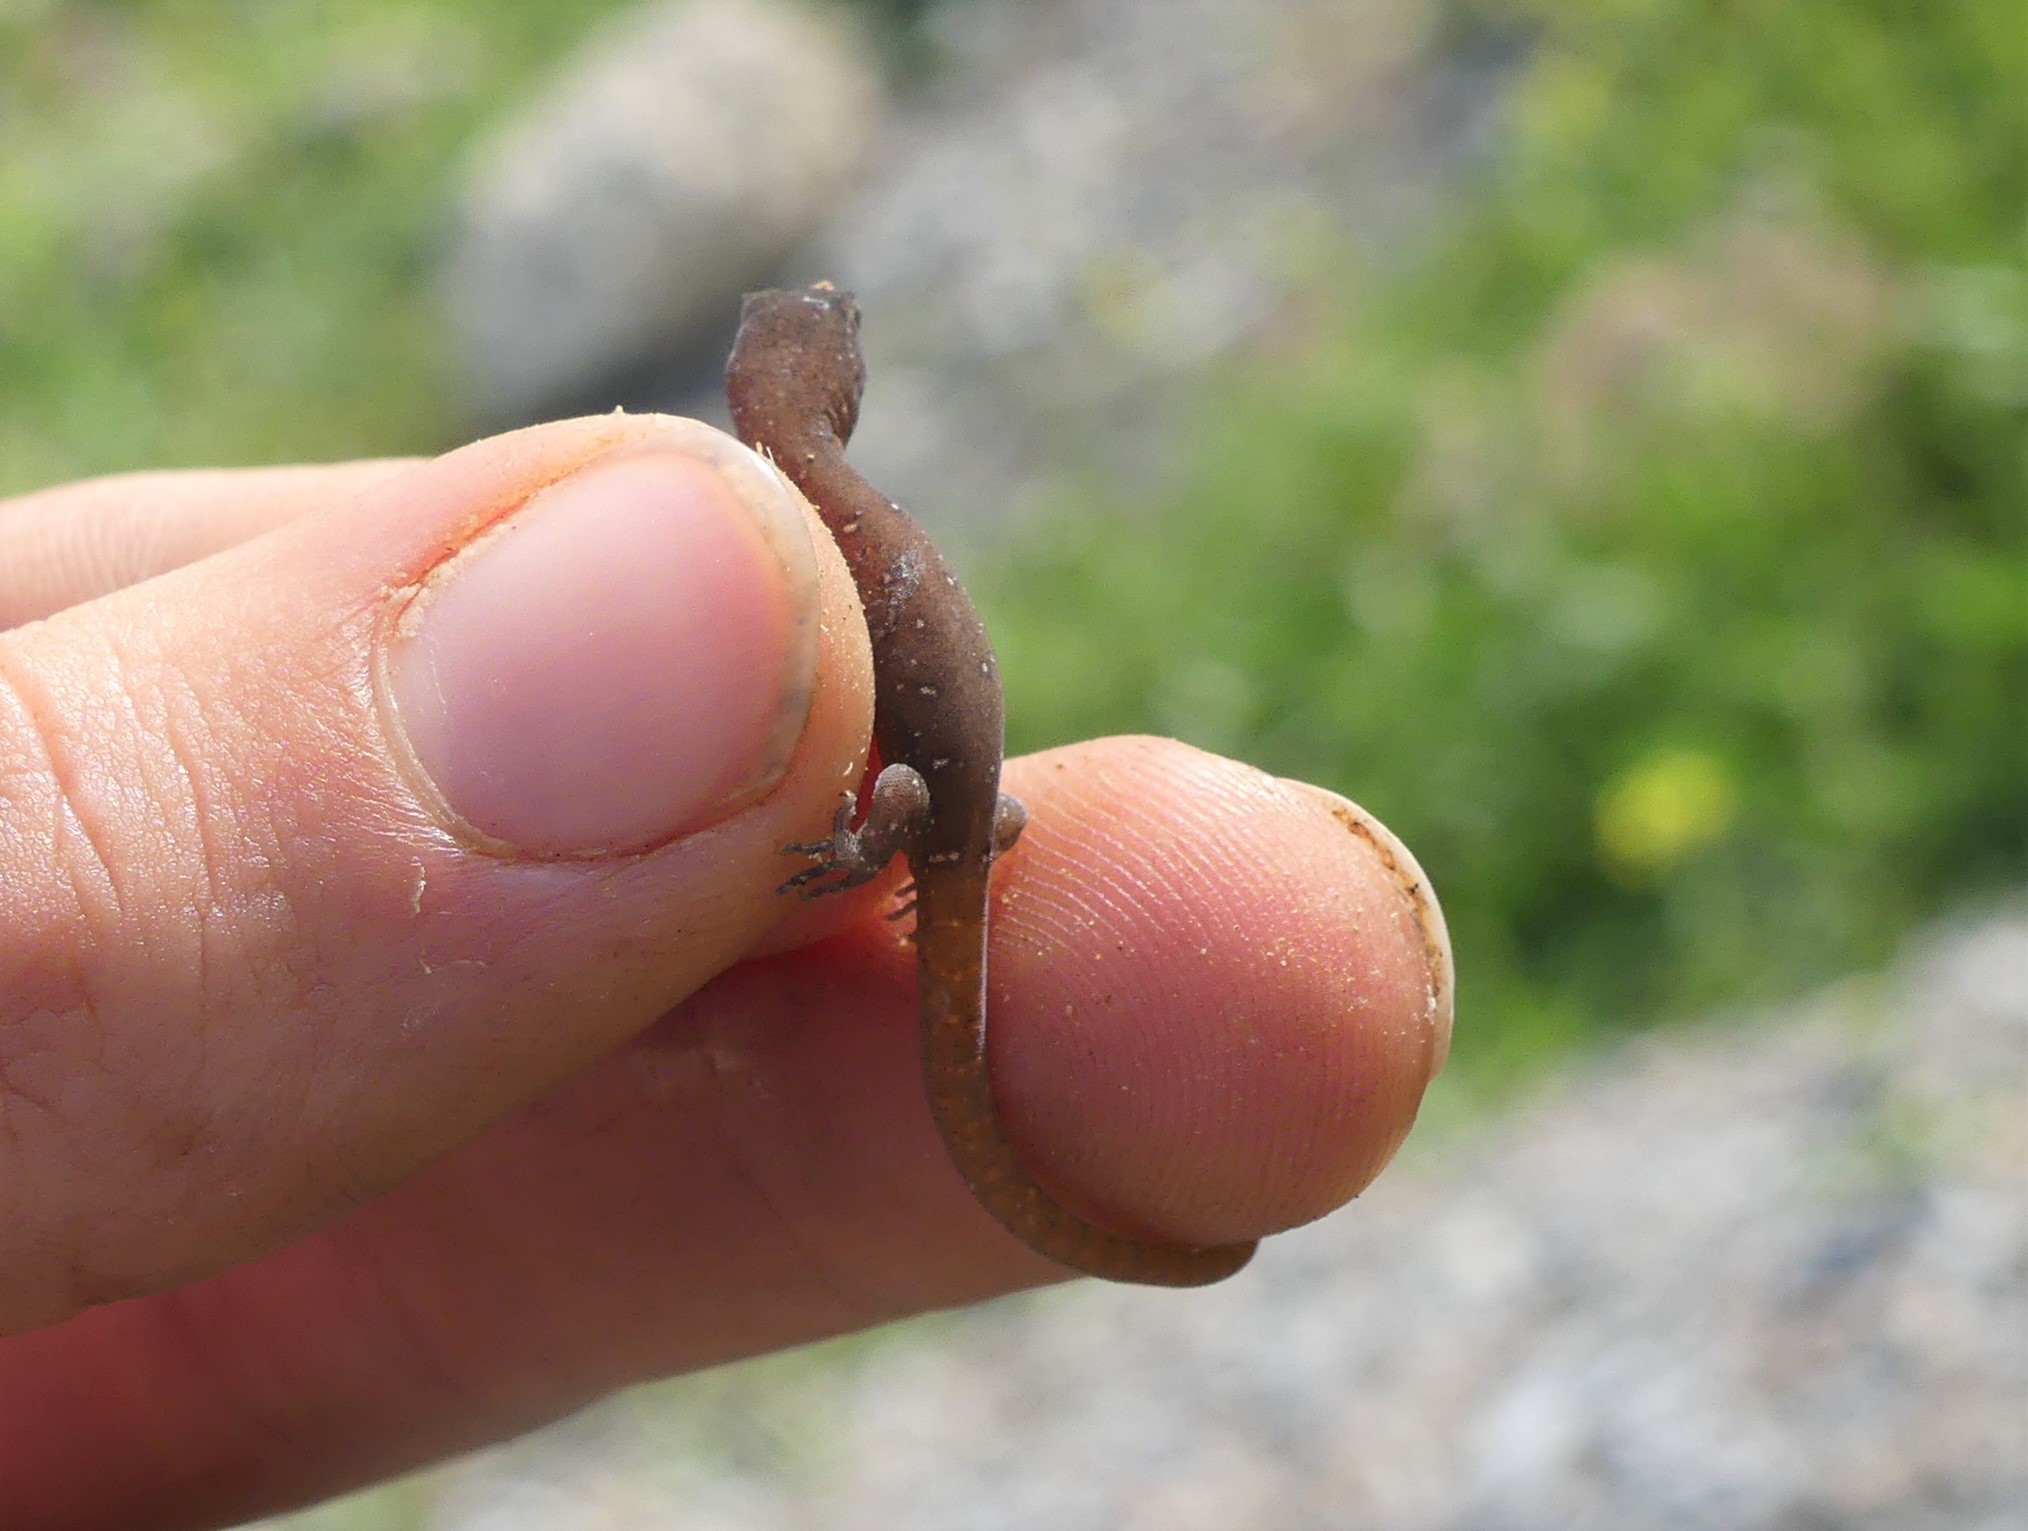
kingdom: Animalia
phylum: Chordata
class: Squamata
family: Sphaerodactylidae
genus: Saurodactylus
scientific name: Saurodactylus fasciatus
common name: Banded toed gecko
